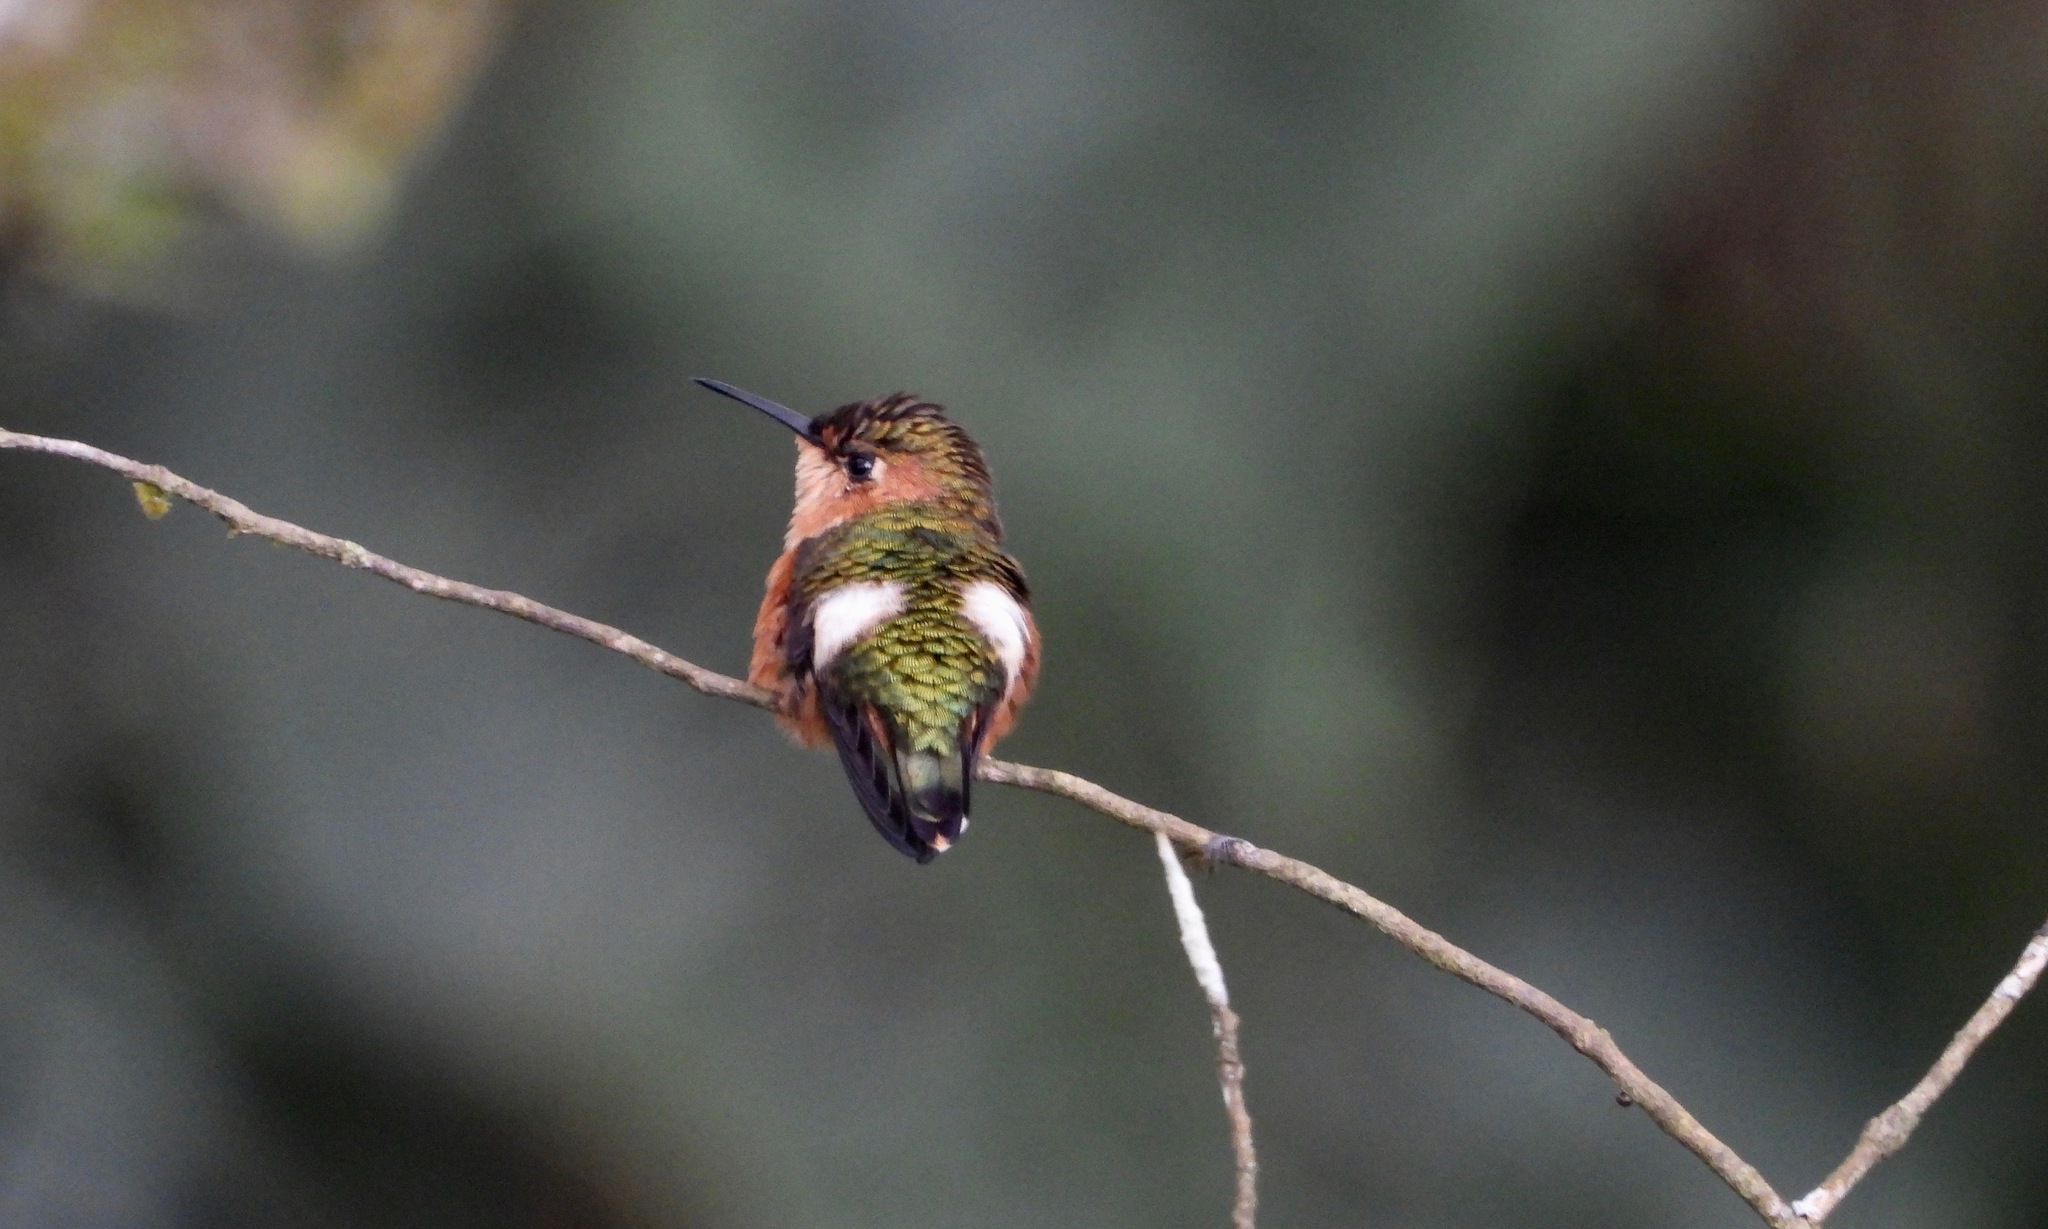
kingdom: Animalia
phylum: Chordata
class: Aves
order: Apodiformes
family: Trochilidae
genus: Tilmatura
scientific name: Tilmatura dupontii
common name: Sparkling-tailed woodstar
